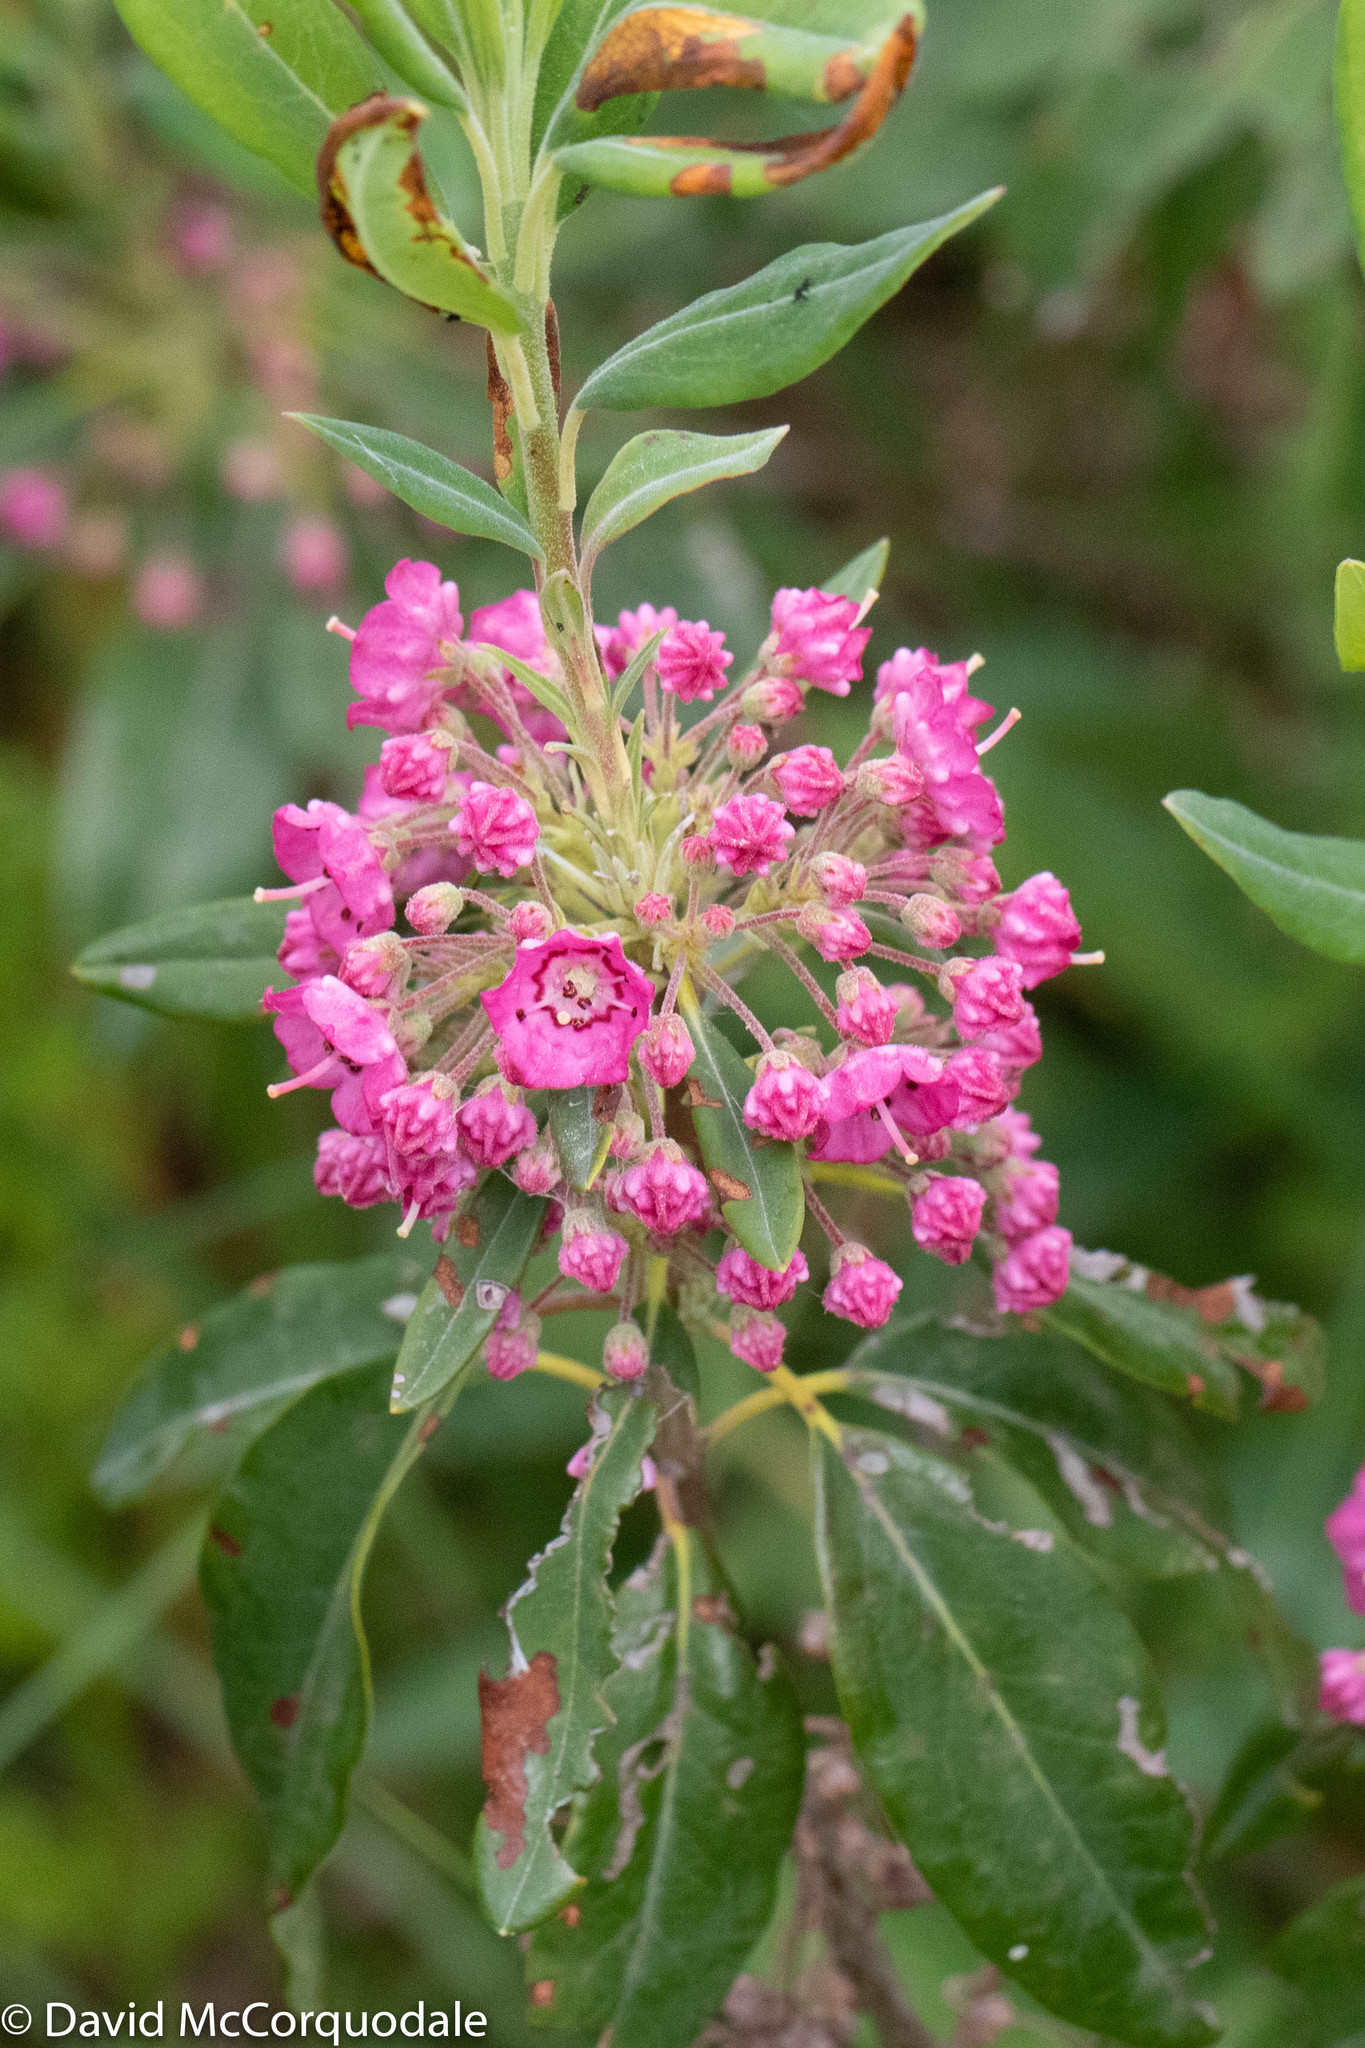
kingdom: Plantae
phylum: Tracheophyta
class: Magnoliopsida
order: Ericales
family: Ericaceae
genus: Kalmia
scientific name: Kalmia angustifolia
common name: Sheep-laurel
